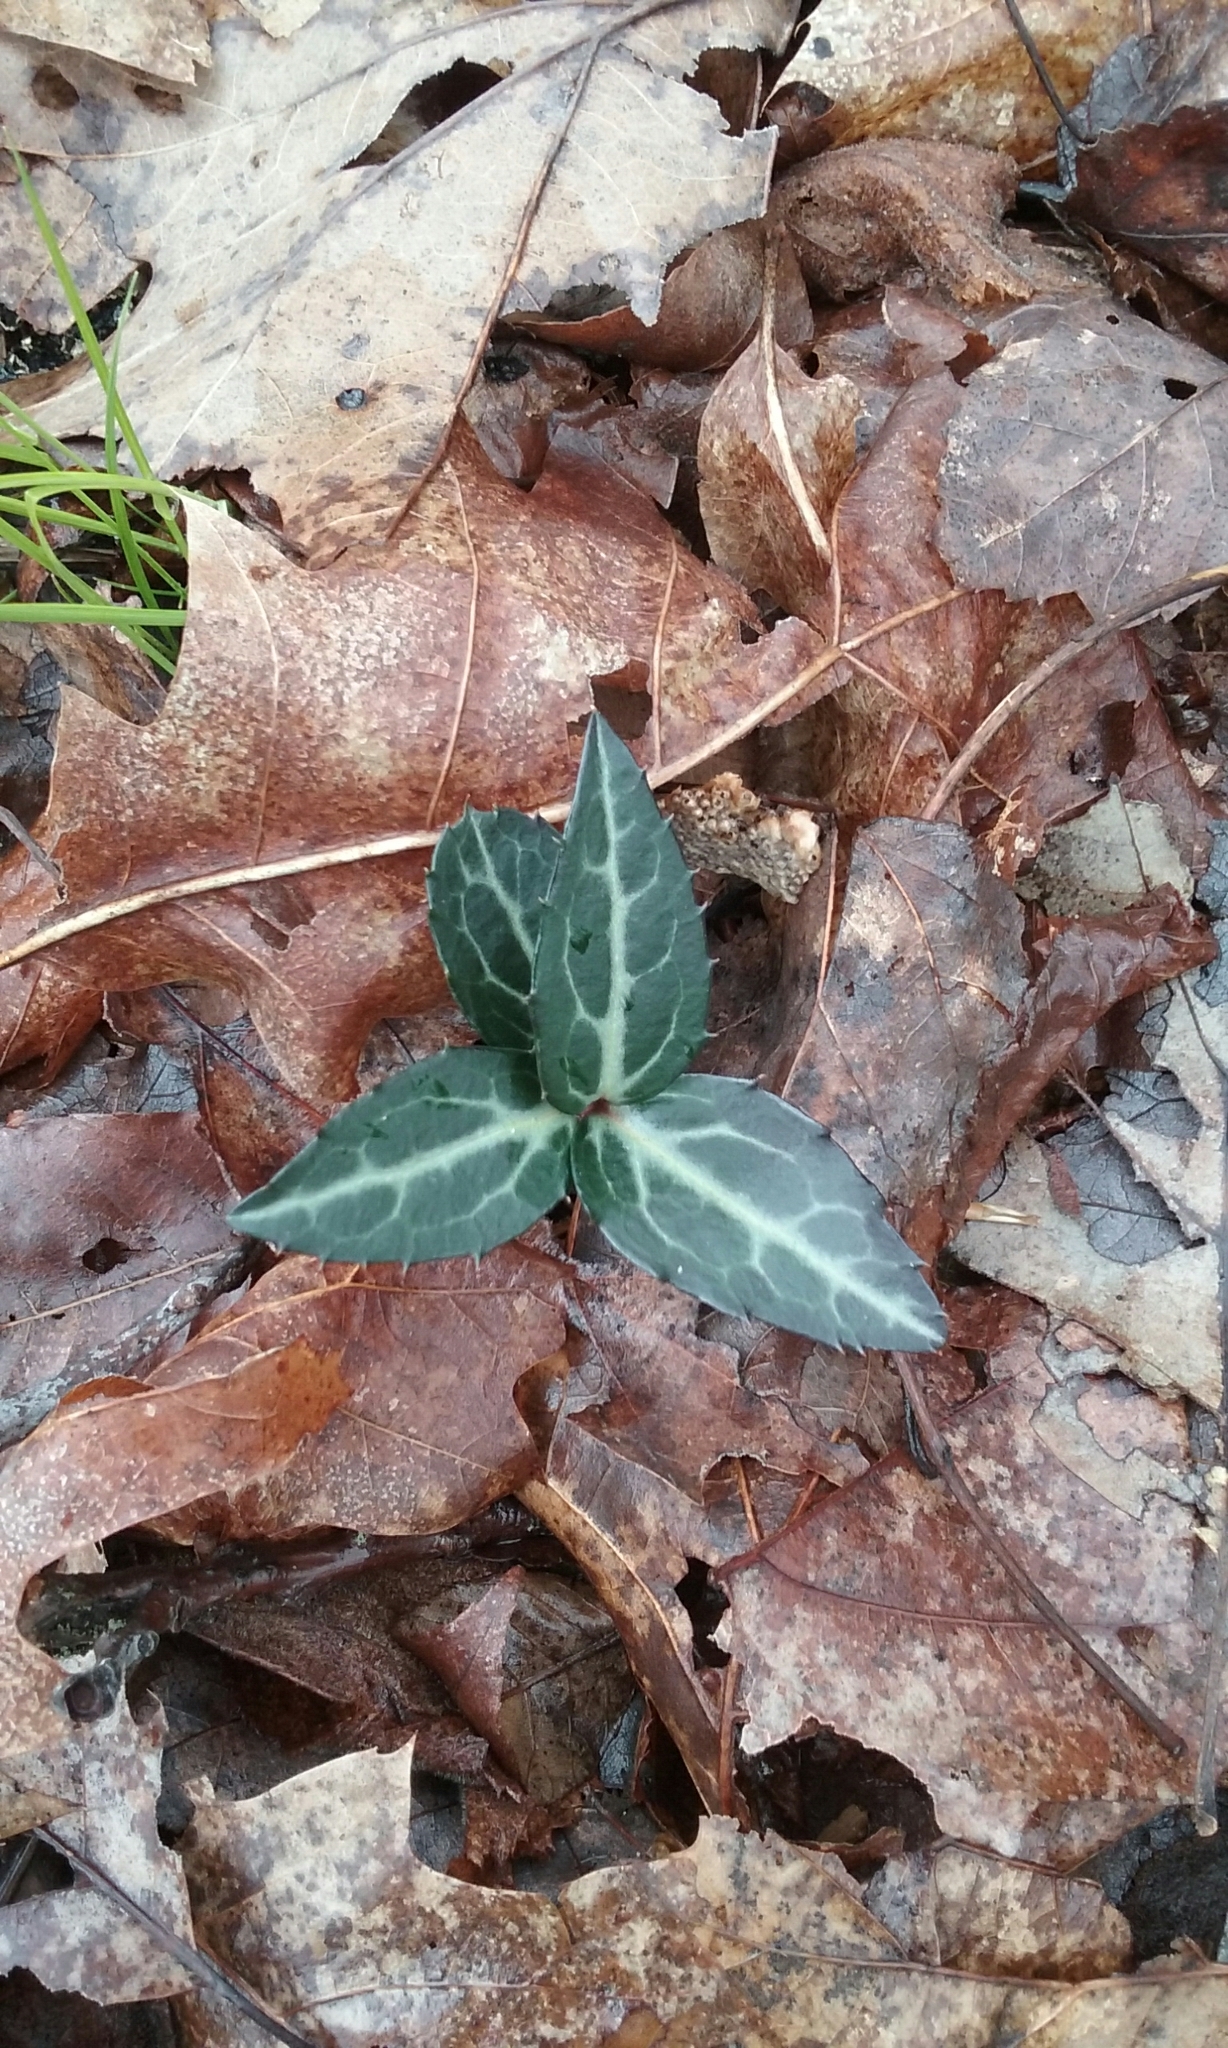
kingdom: Plantae
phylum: Tracheophyta
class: Magnoliopsida
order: Ericales
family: Ericaceae
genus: Chimaphila
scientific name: Chimaphila maculata
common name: Spotted pipsissewa
